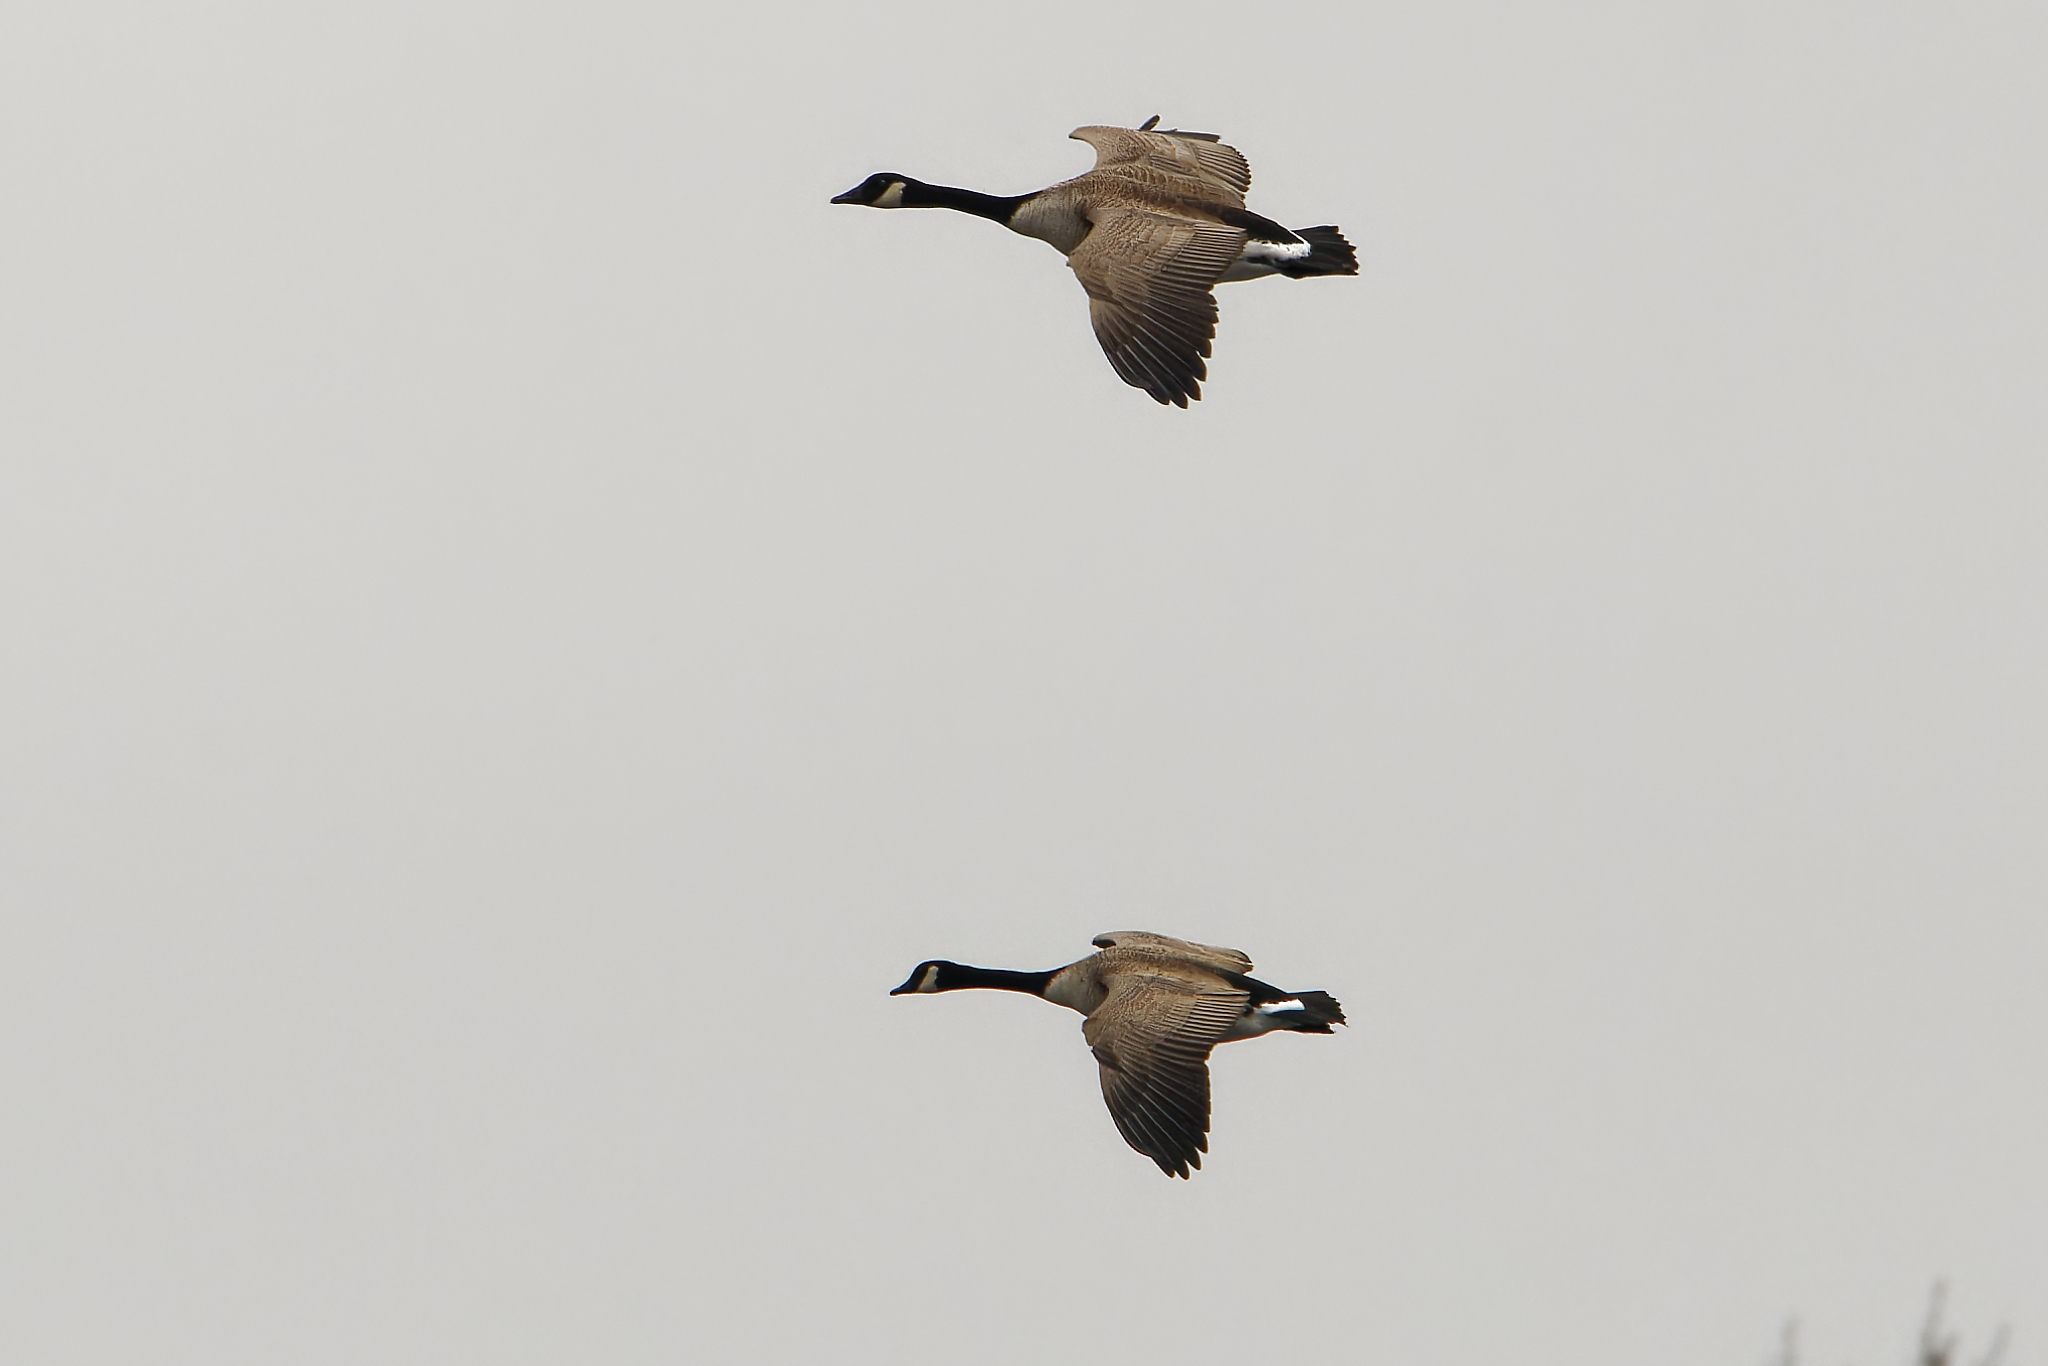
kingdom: Animalia
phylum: Chordata
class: Aves
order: Anseriformes
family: Anatidae
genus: Branta
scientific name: Branta canadensis
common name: Canada goose
